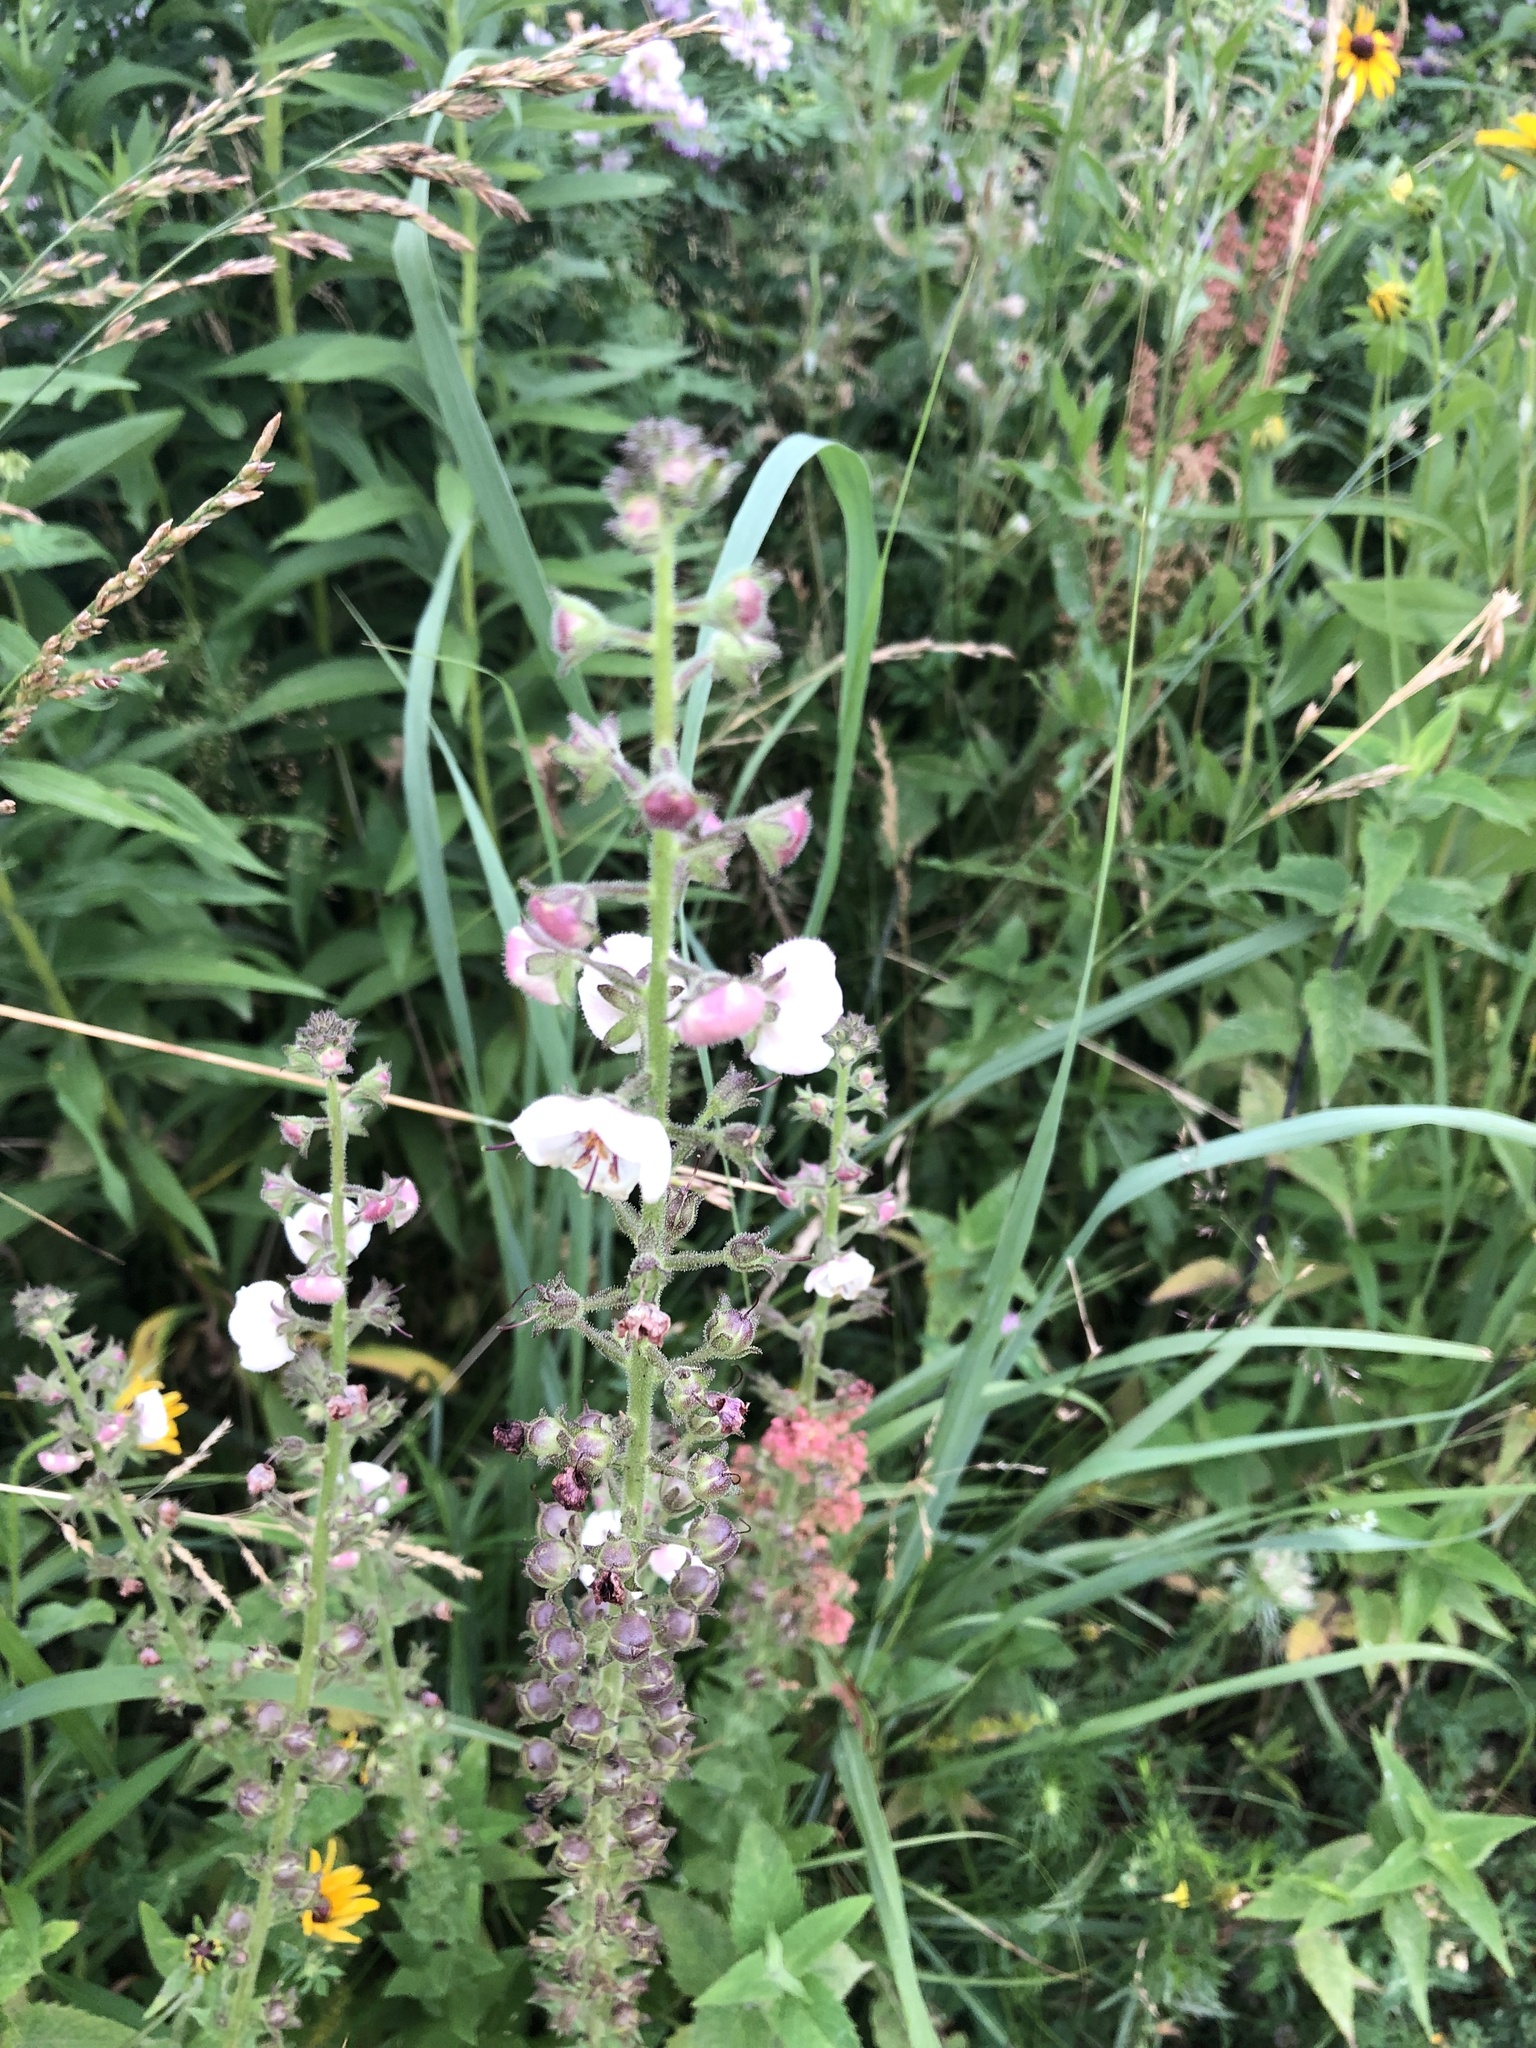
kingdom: Plantae
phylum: Tracheophyta
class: Magnoliopsida
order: Lamiales
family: Scrophulariaceae
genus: Verbascum
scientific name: Verbascum blattaria
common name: Moth mullein
